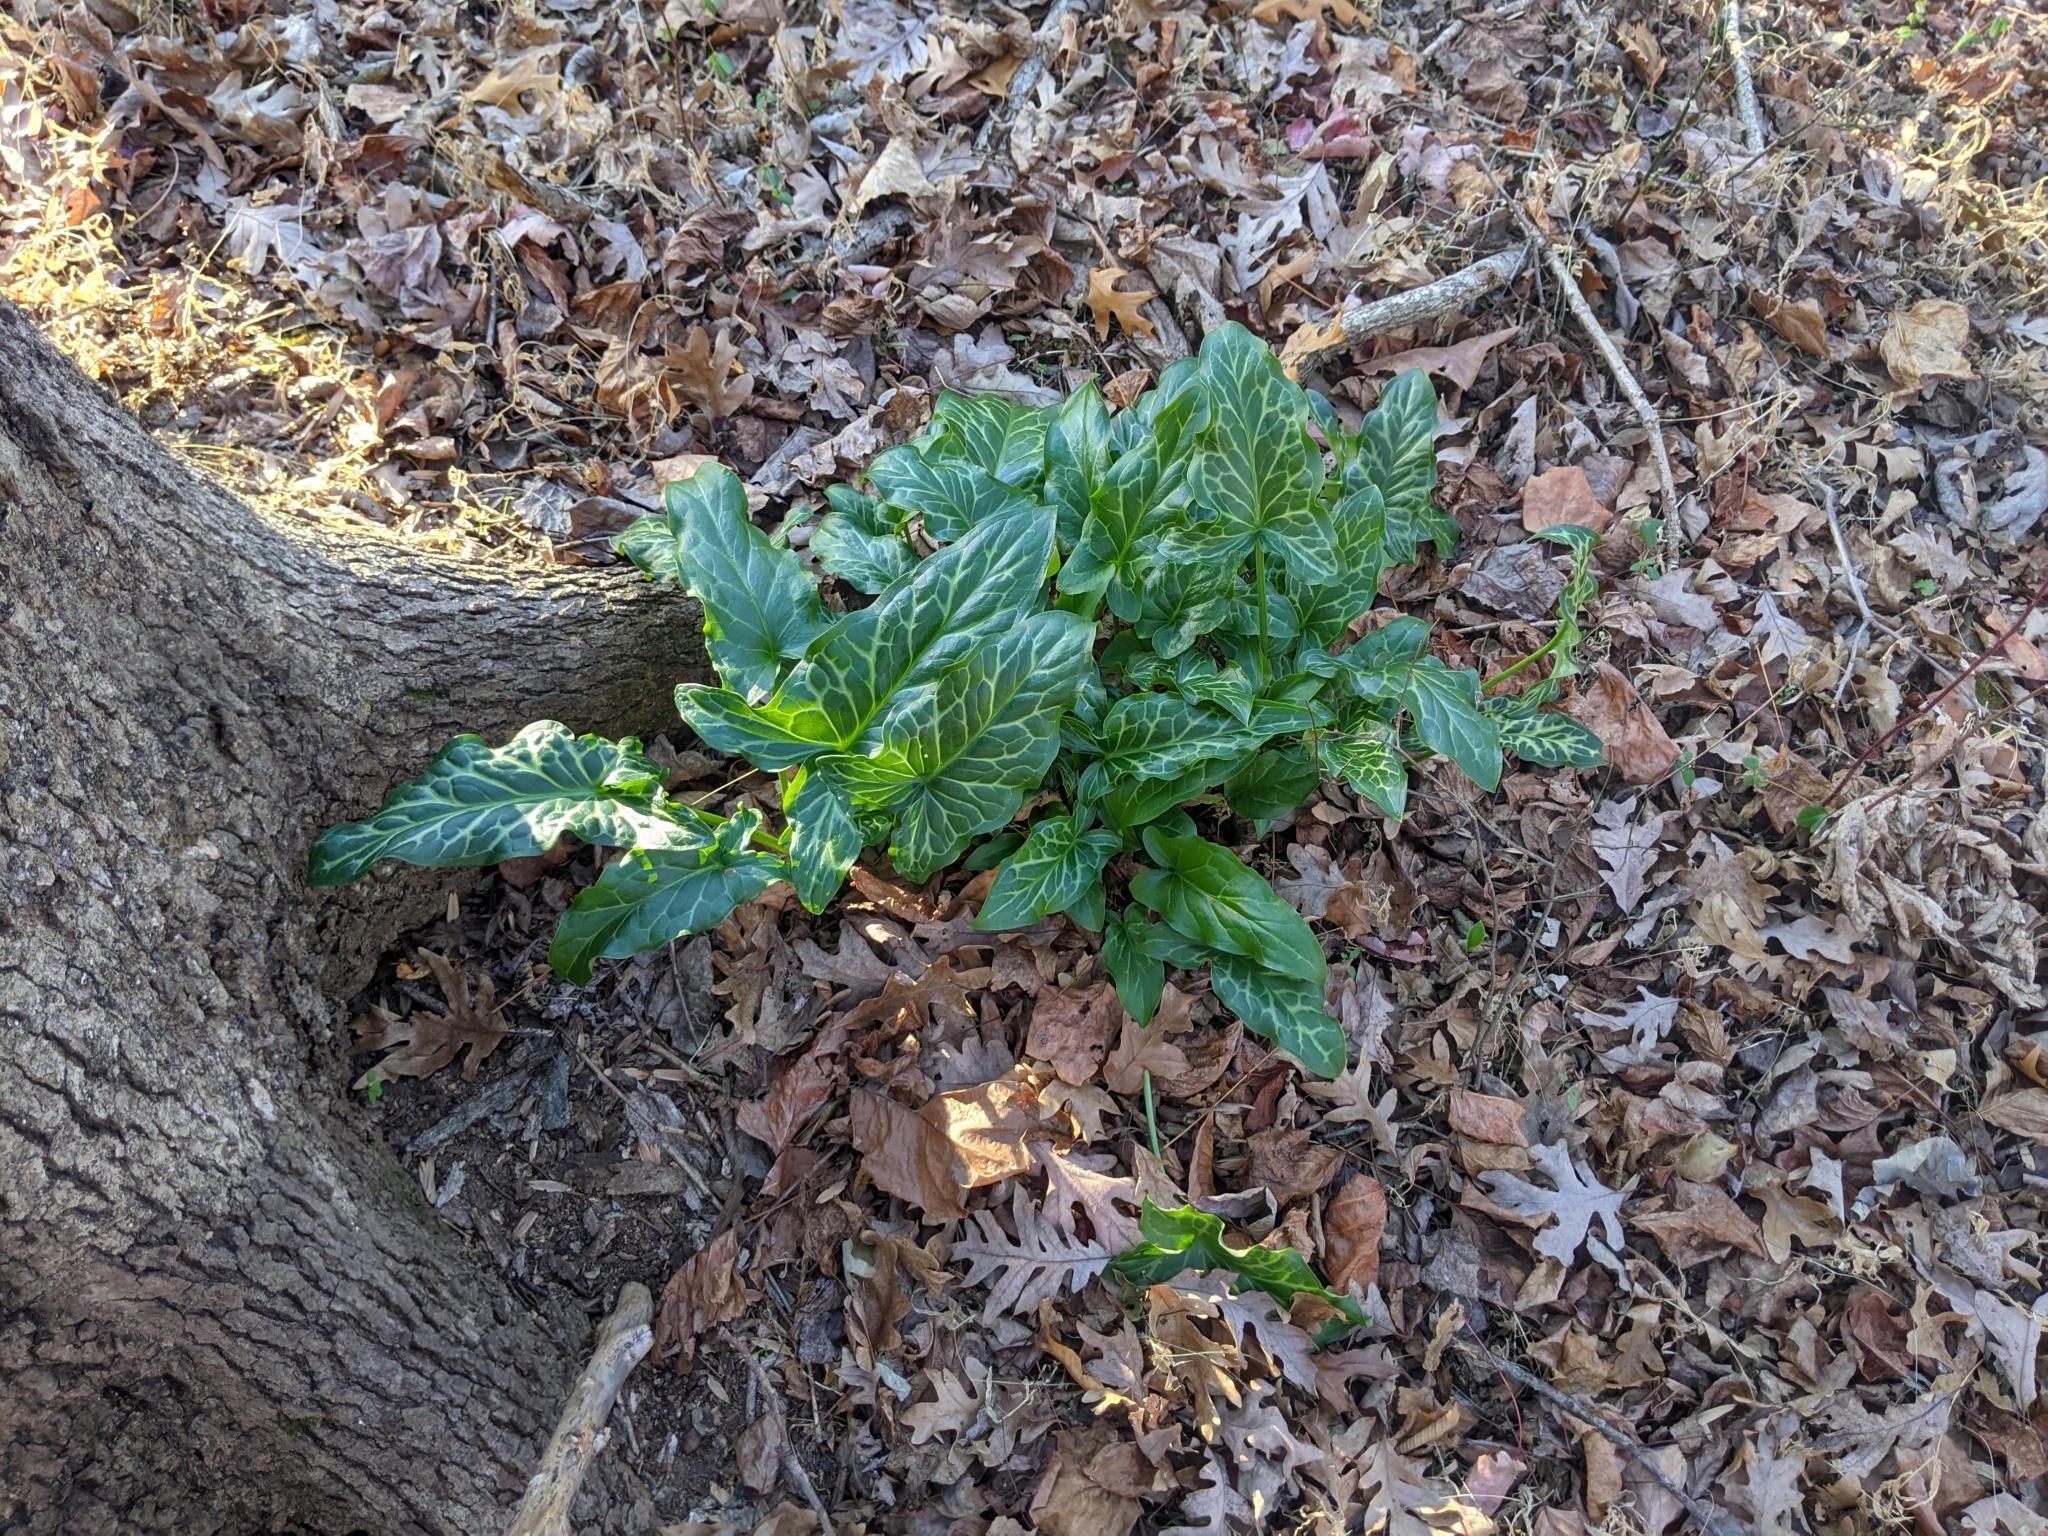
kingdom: Plantae
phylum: Tracheophyta
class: Liliopsida
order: Alismatales
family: Araceae
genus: Arum
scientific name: Arum italicum
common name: Italian lords-and-ladies
